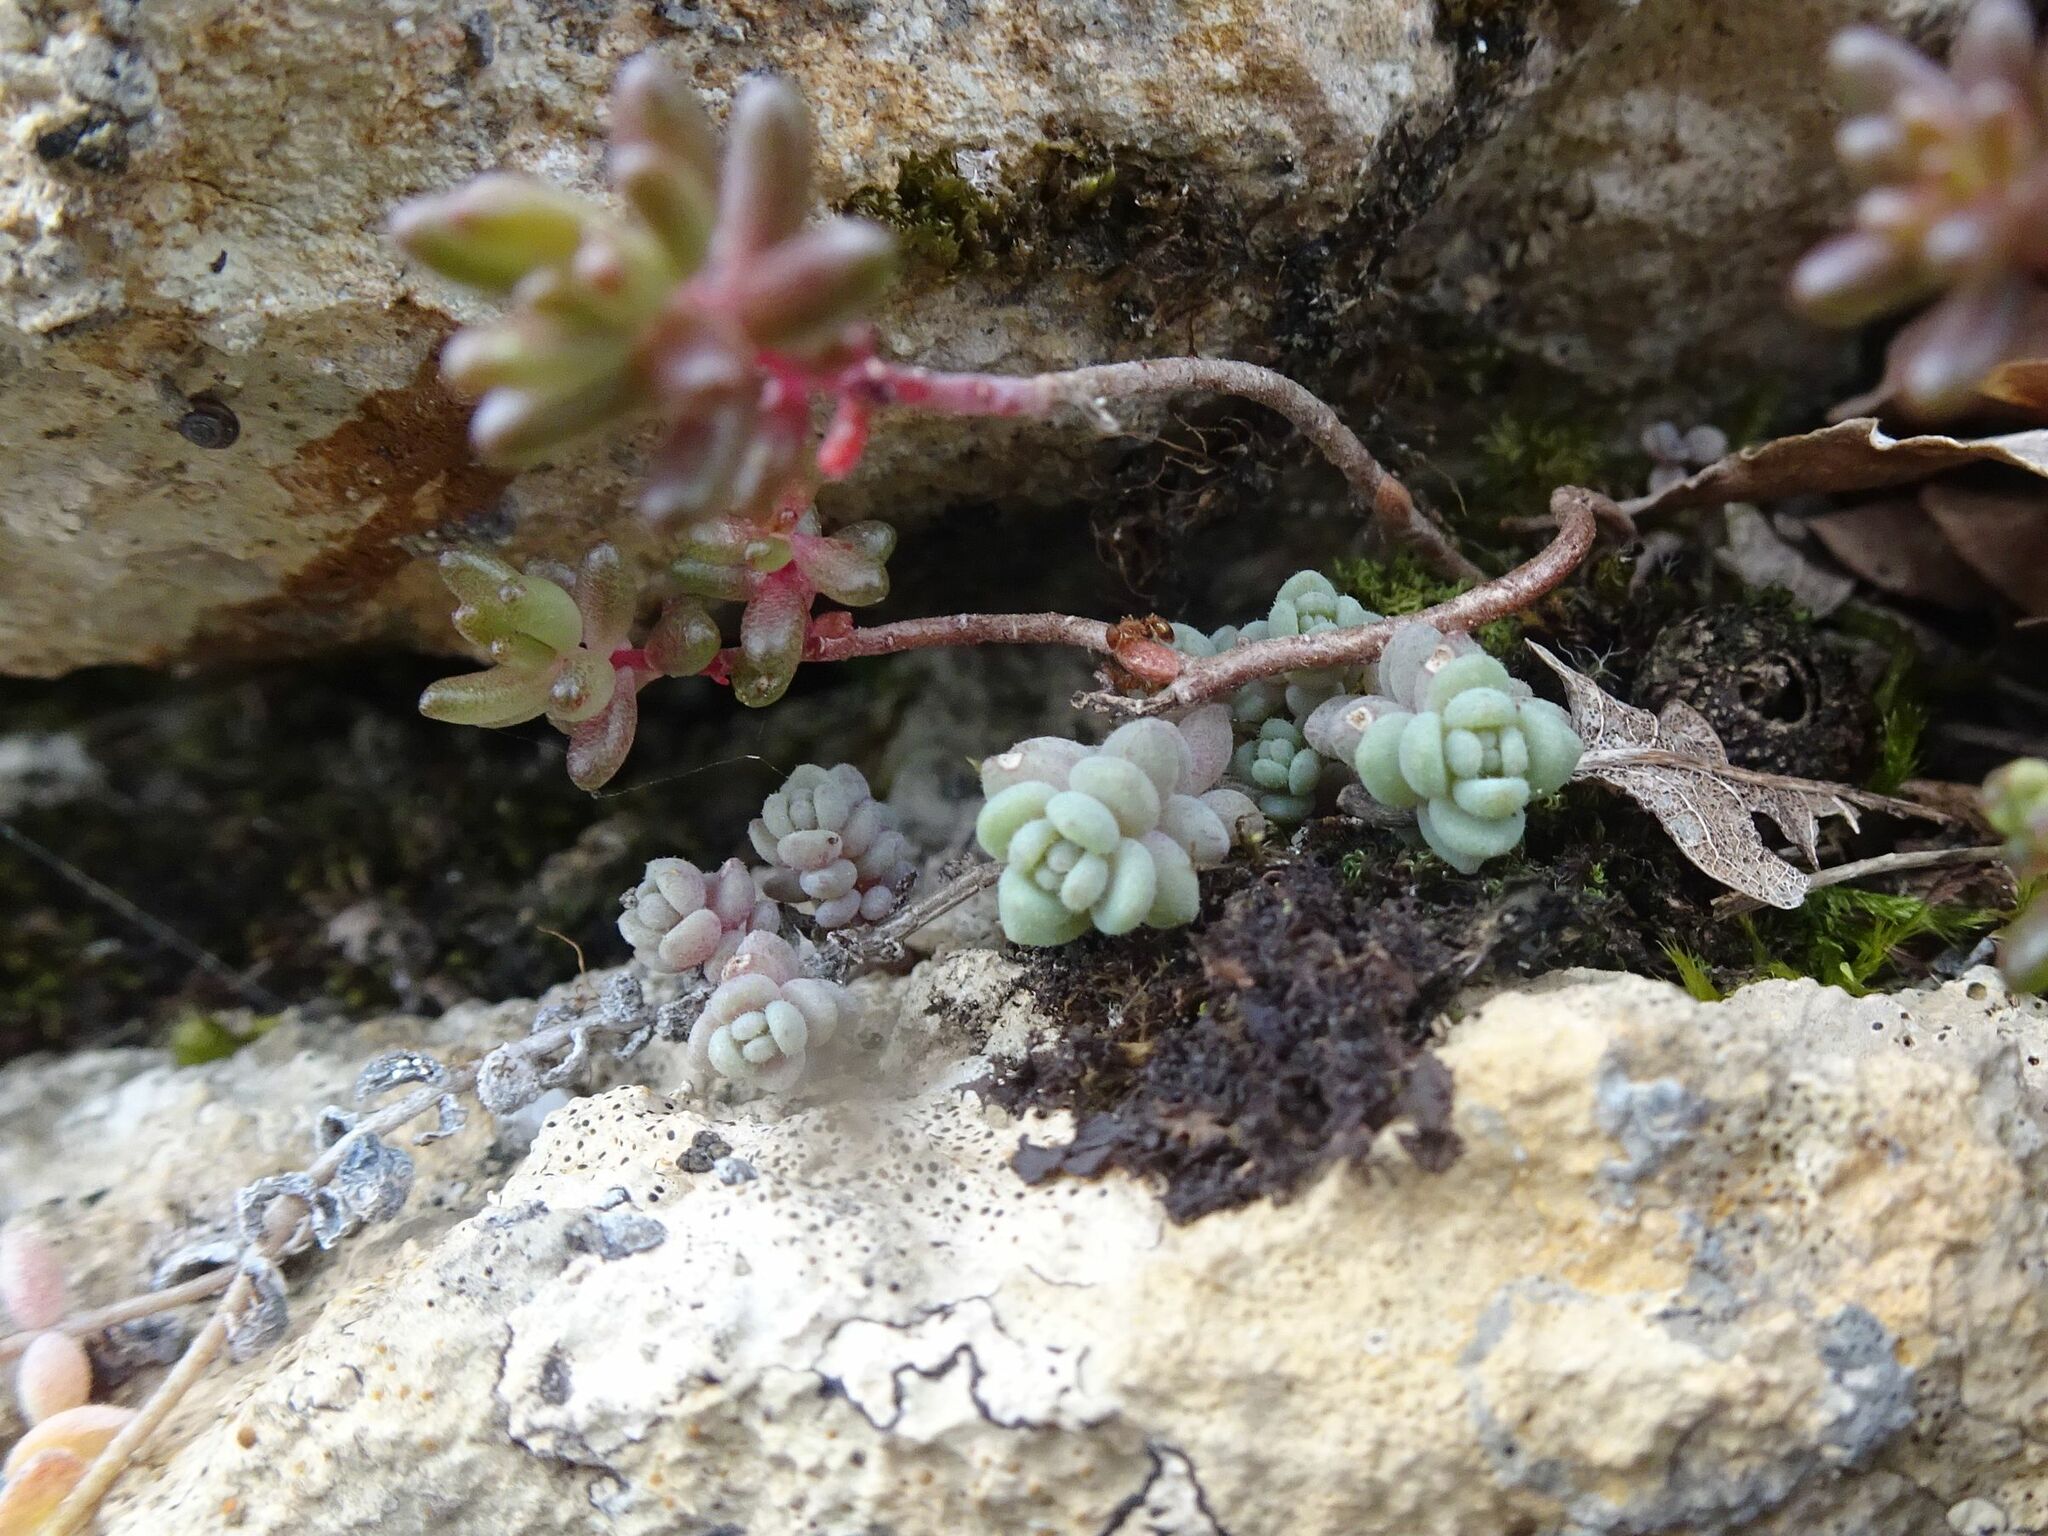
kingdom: Plantae
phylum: Tracheophyta
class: Magnoliopsida
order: Saxifragales
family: Crassulaceae
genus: Sedum
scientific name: Sedum dasyphyllum
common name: Thick-leaf stonecrop
